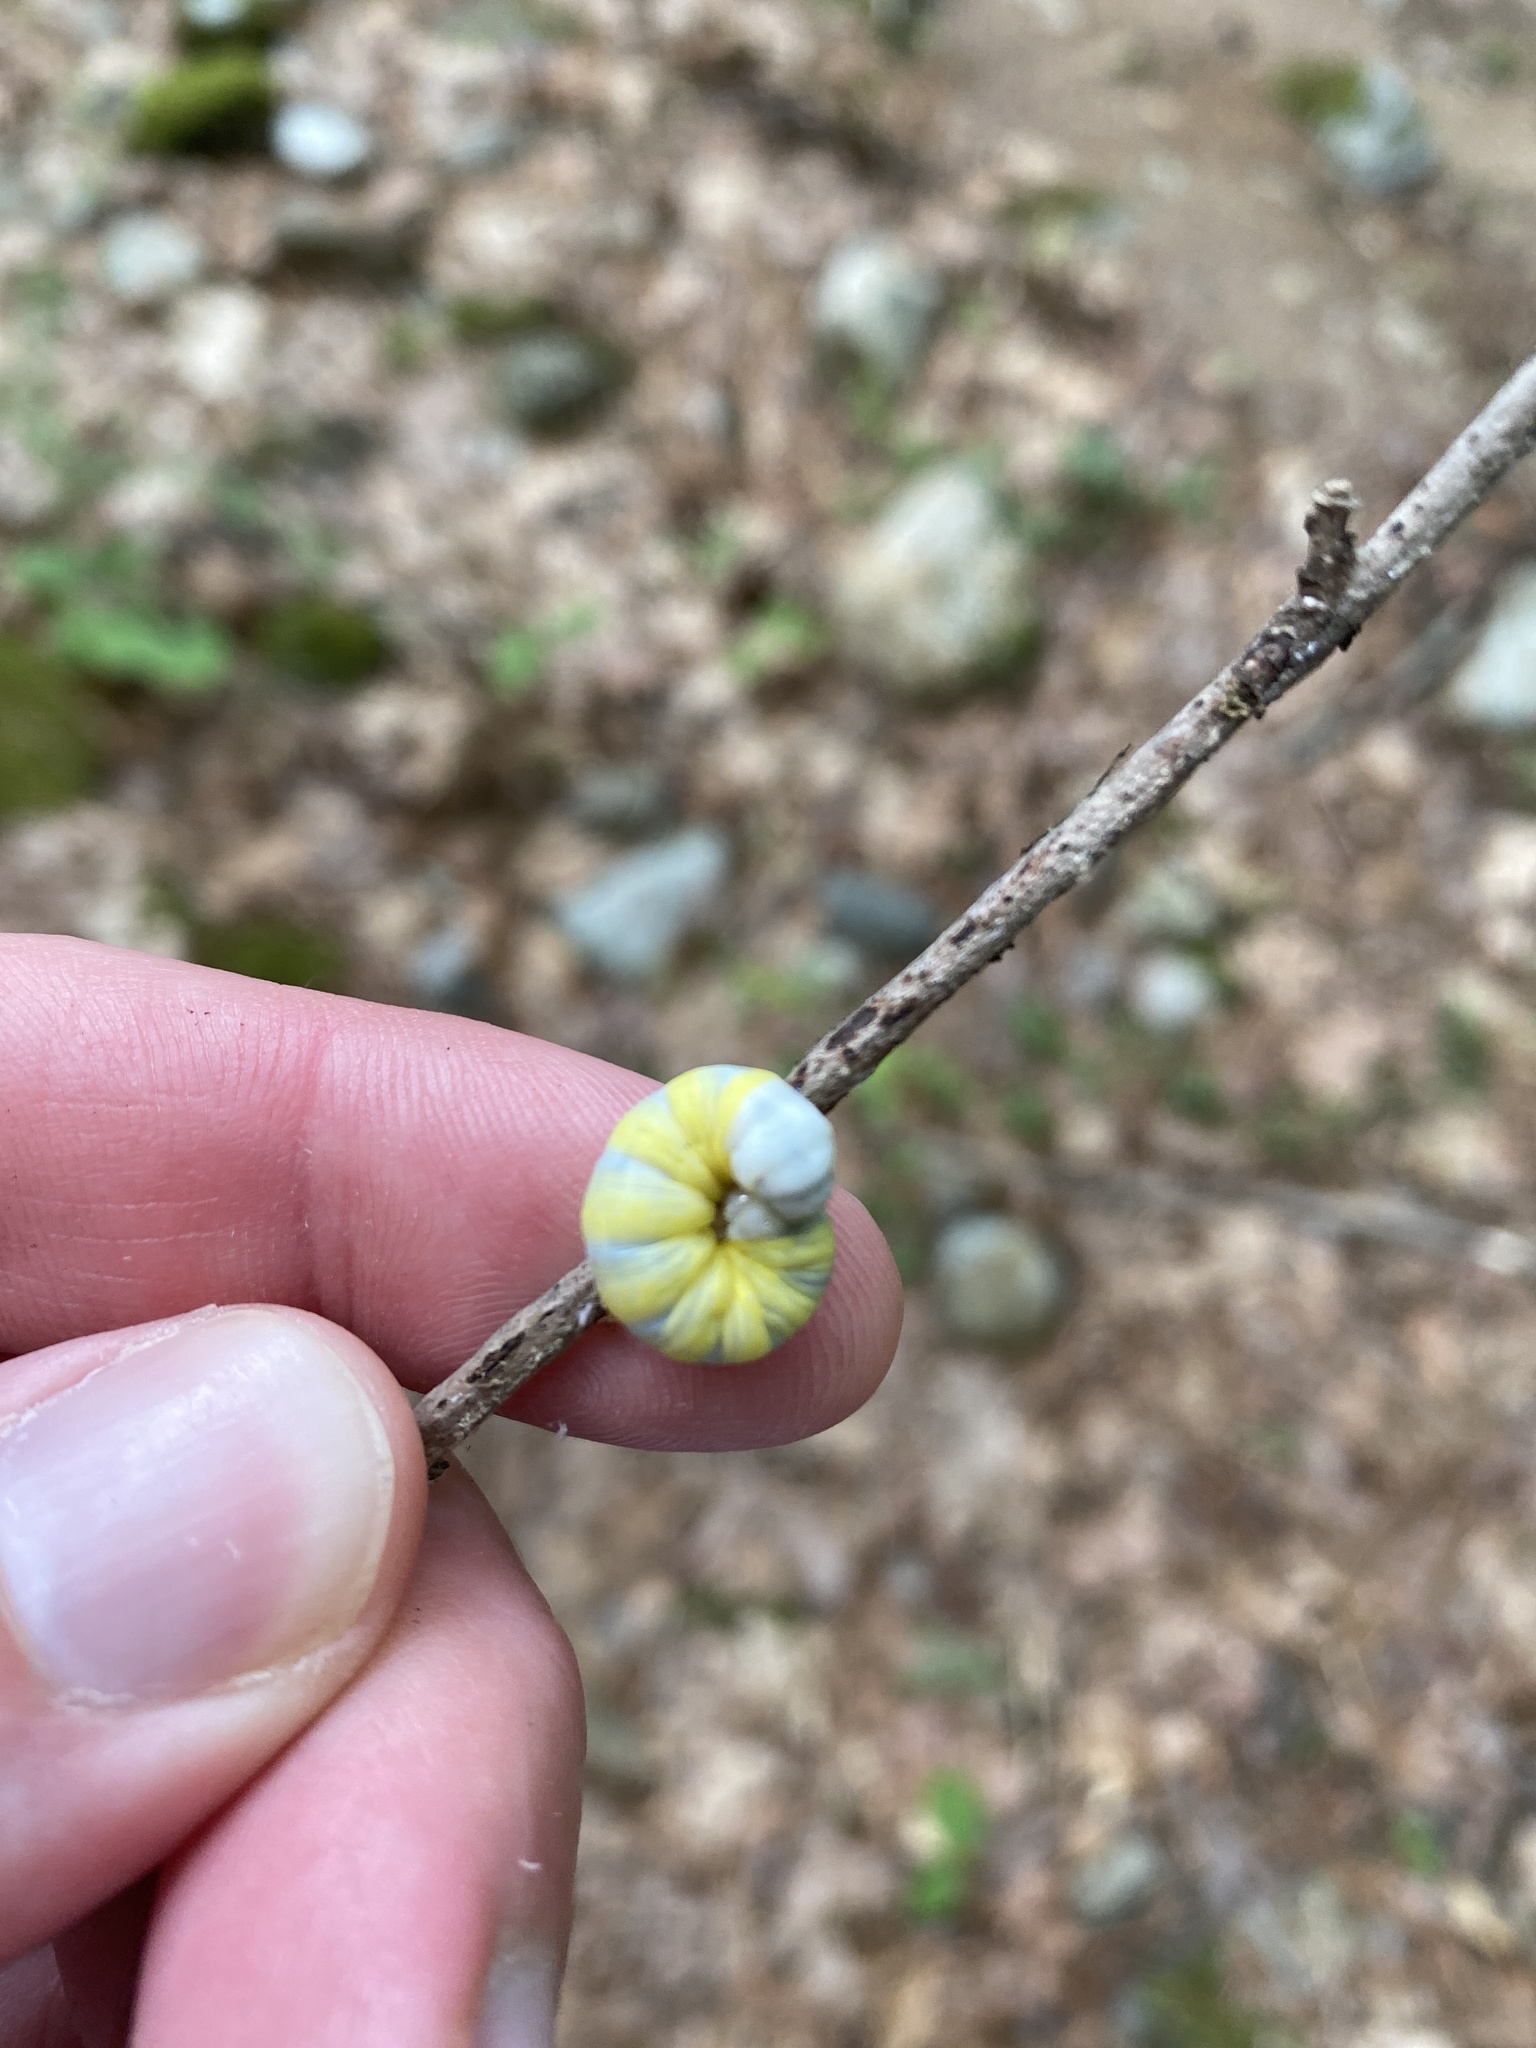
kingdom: Animalia
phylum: Arthropoda
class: Insecta
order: Lepidoptera
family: Noctuidae
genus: Pyreferra
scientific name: Pyreferra
